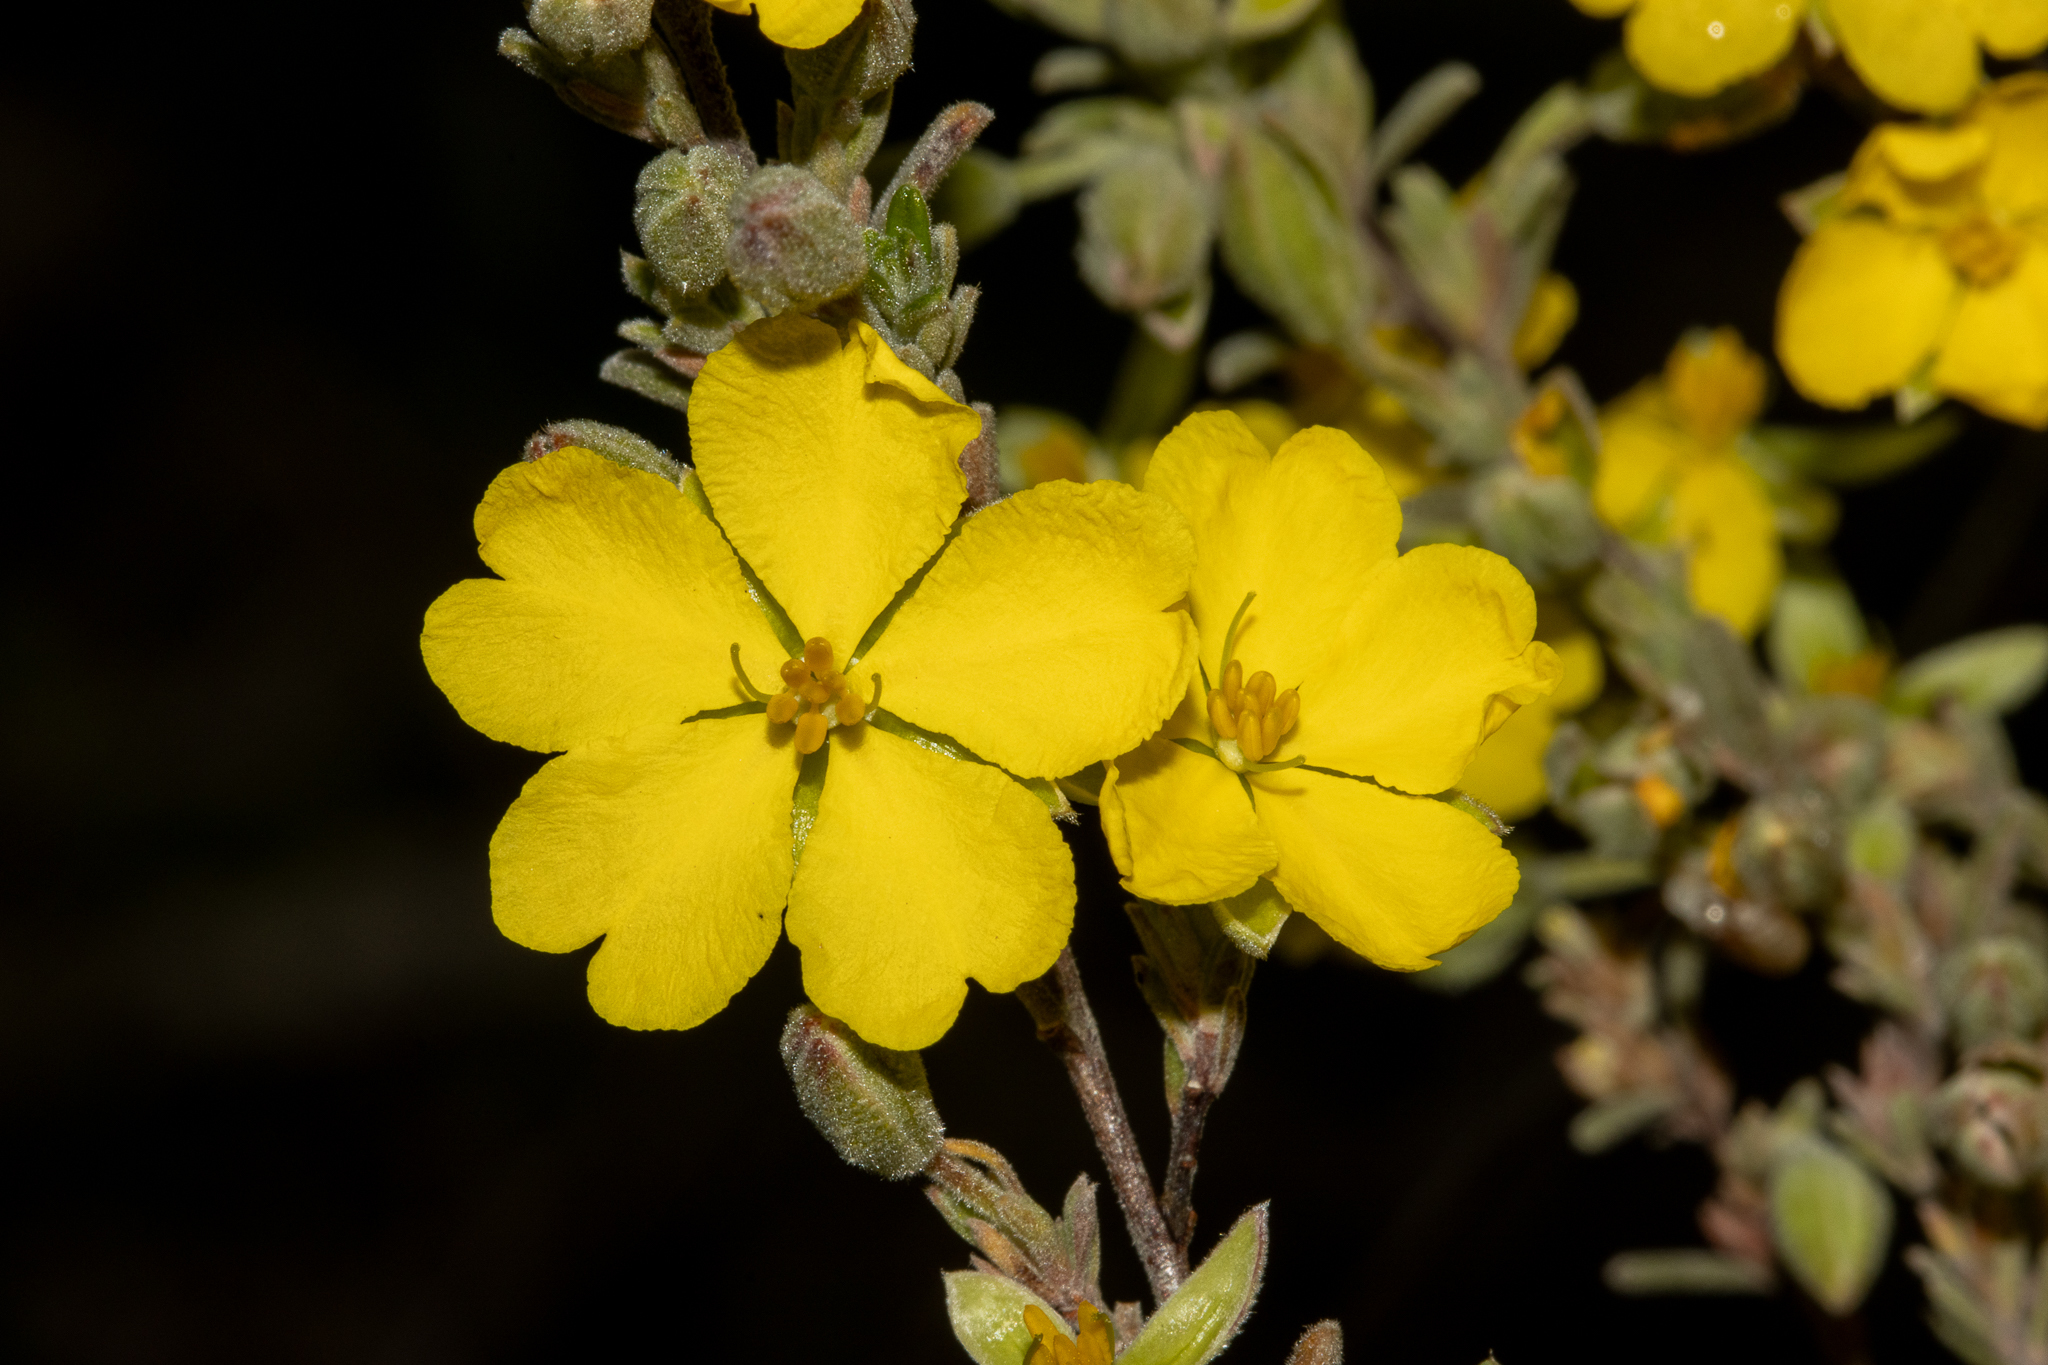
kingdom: Plantae
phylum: Tracheophyta
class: Magnoliopsida
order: Dilleniales
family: Dilleniaceae
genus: Hibbertia
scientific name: Hibbertia australis
